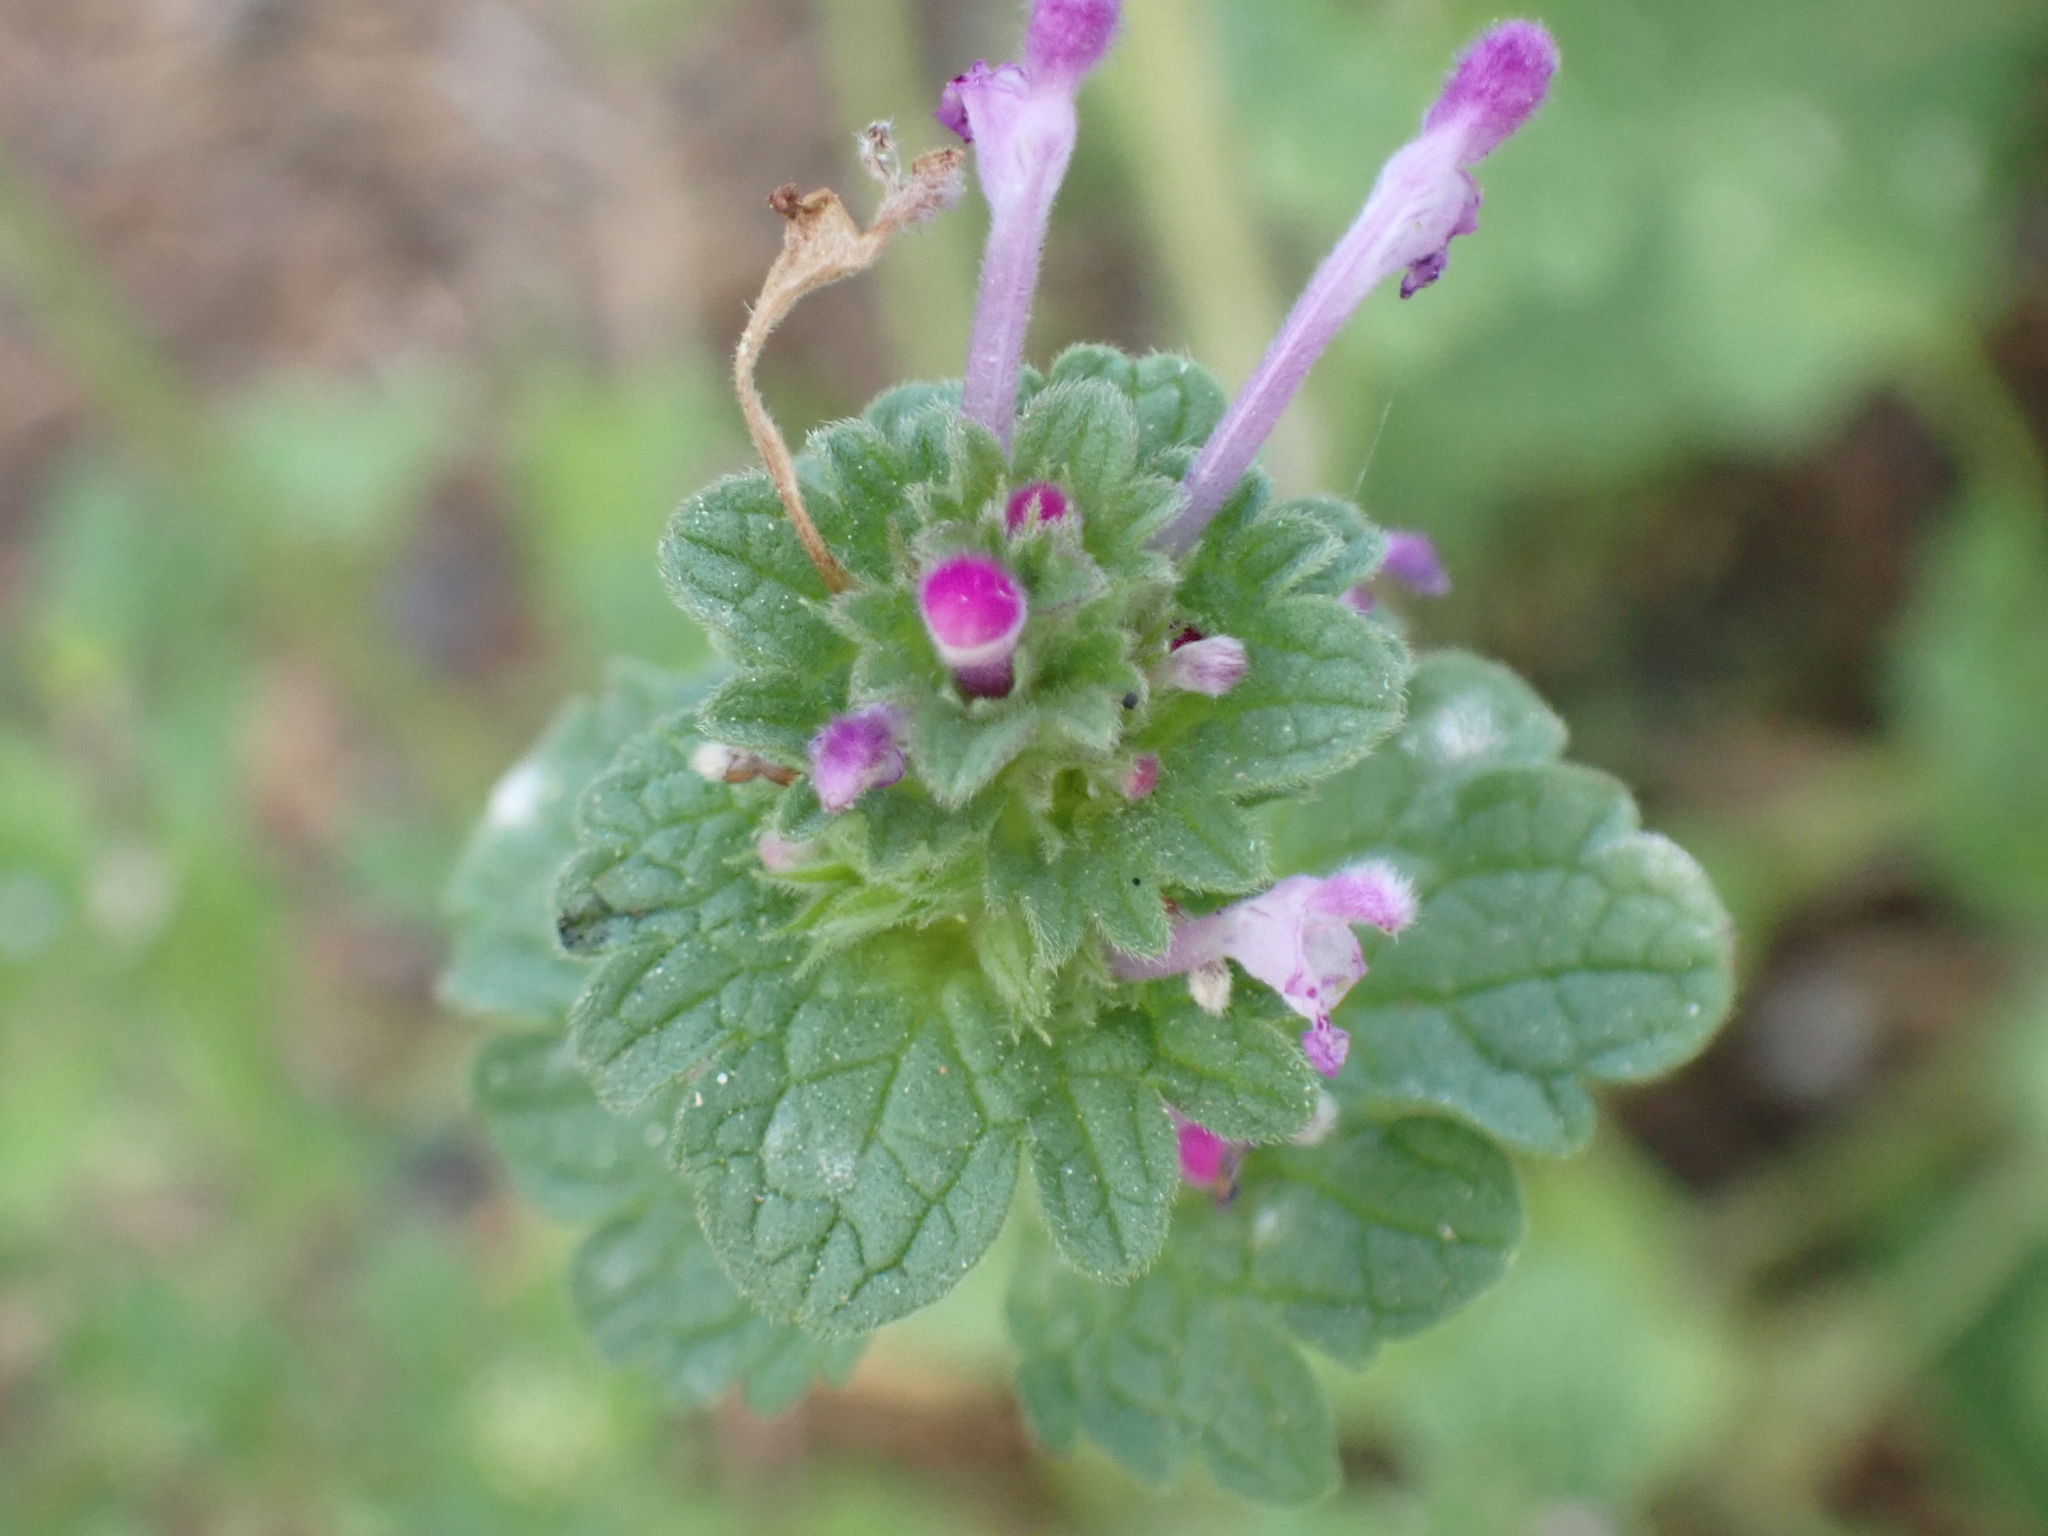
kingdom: Plantae
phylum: Tracheophyta
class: Magnoliopsida
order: Lamiales
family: Lamiaceae
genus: Lamium
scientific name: Lamium amplexicaule
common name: Henbit dead-nettle
